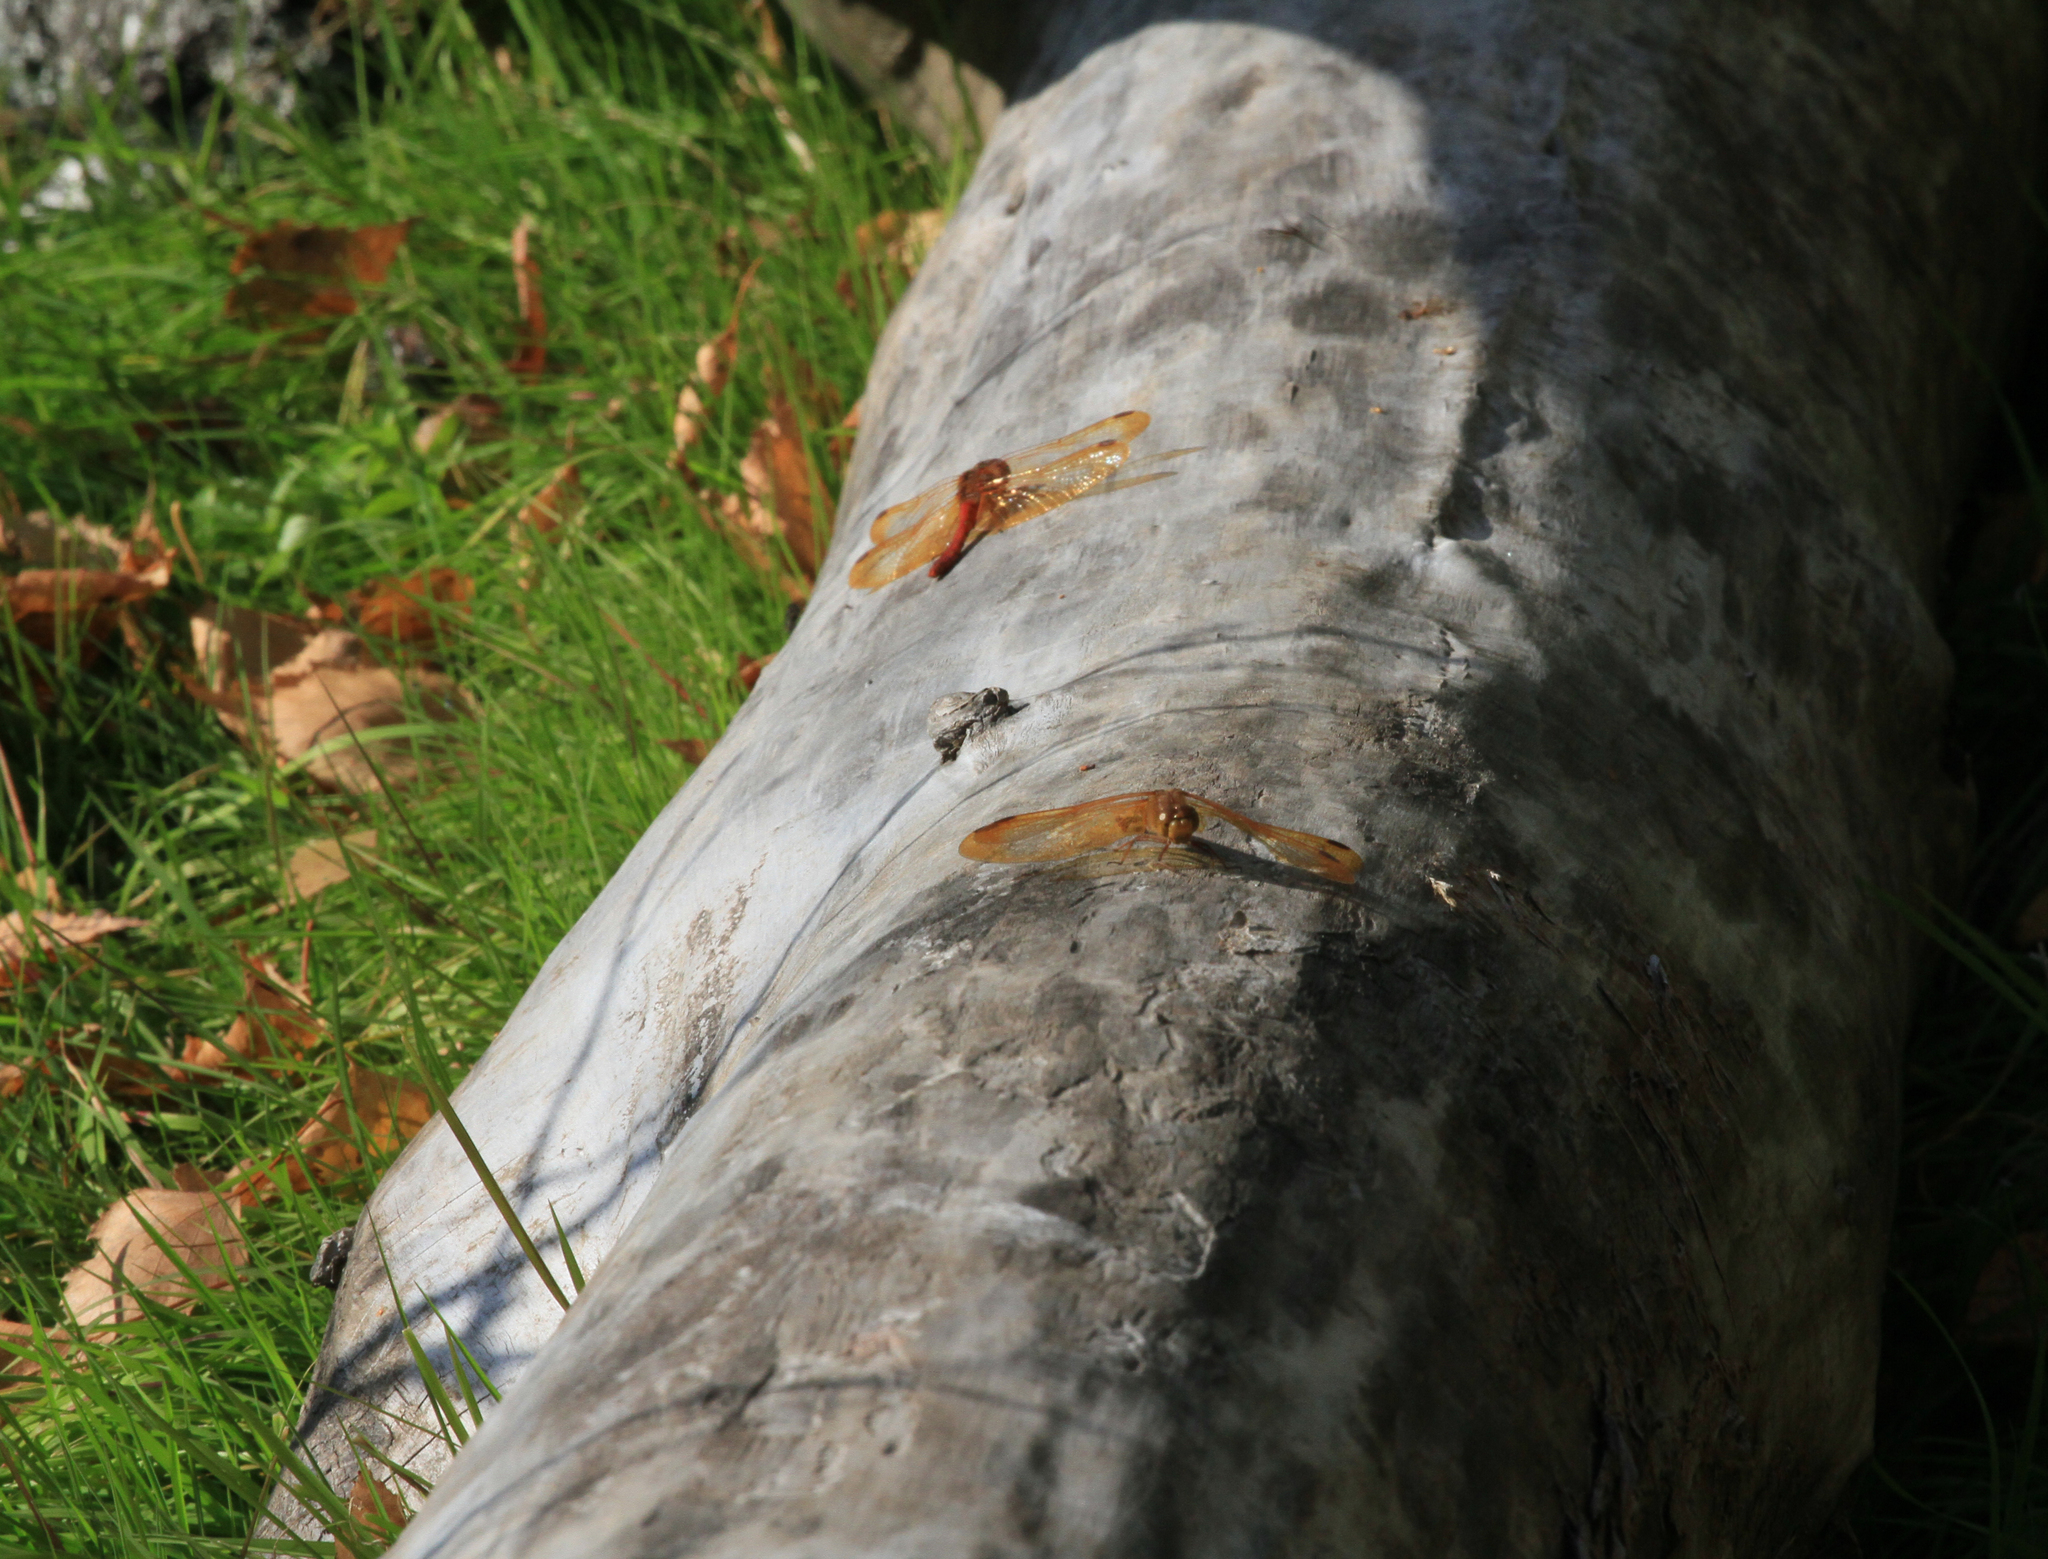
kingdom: Animalia
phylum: Arthropoda
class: Insecta
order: Odonata
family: Libellulidae
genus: Sympetrum
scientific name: Sympetrum croceolum
